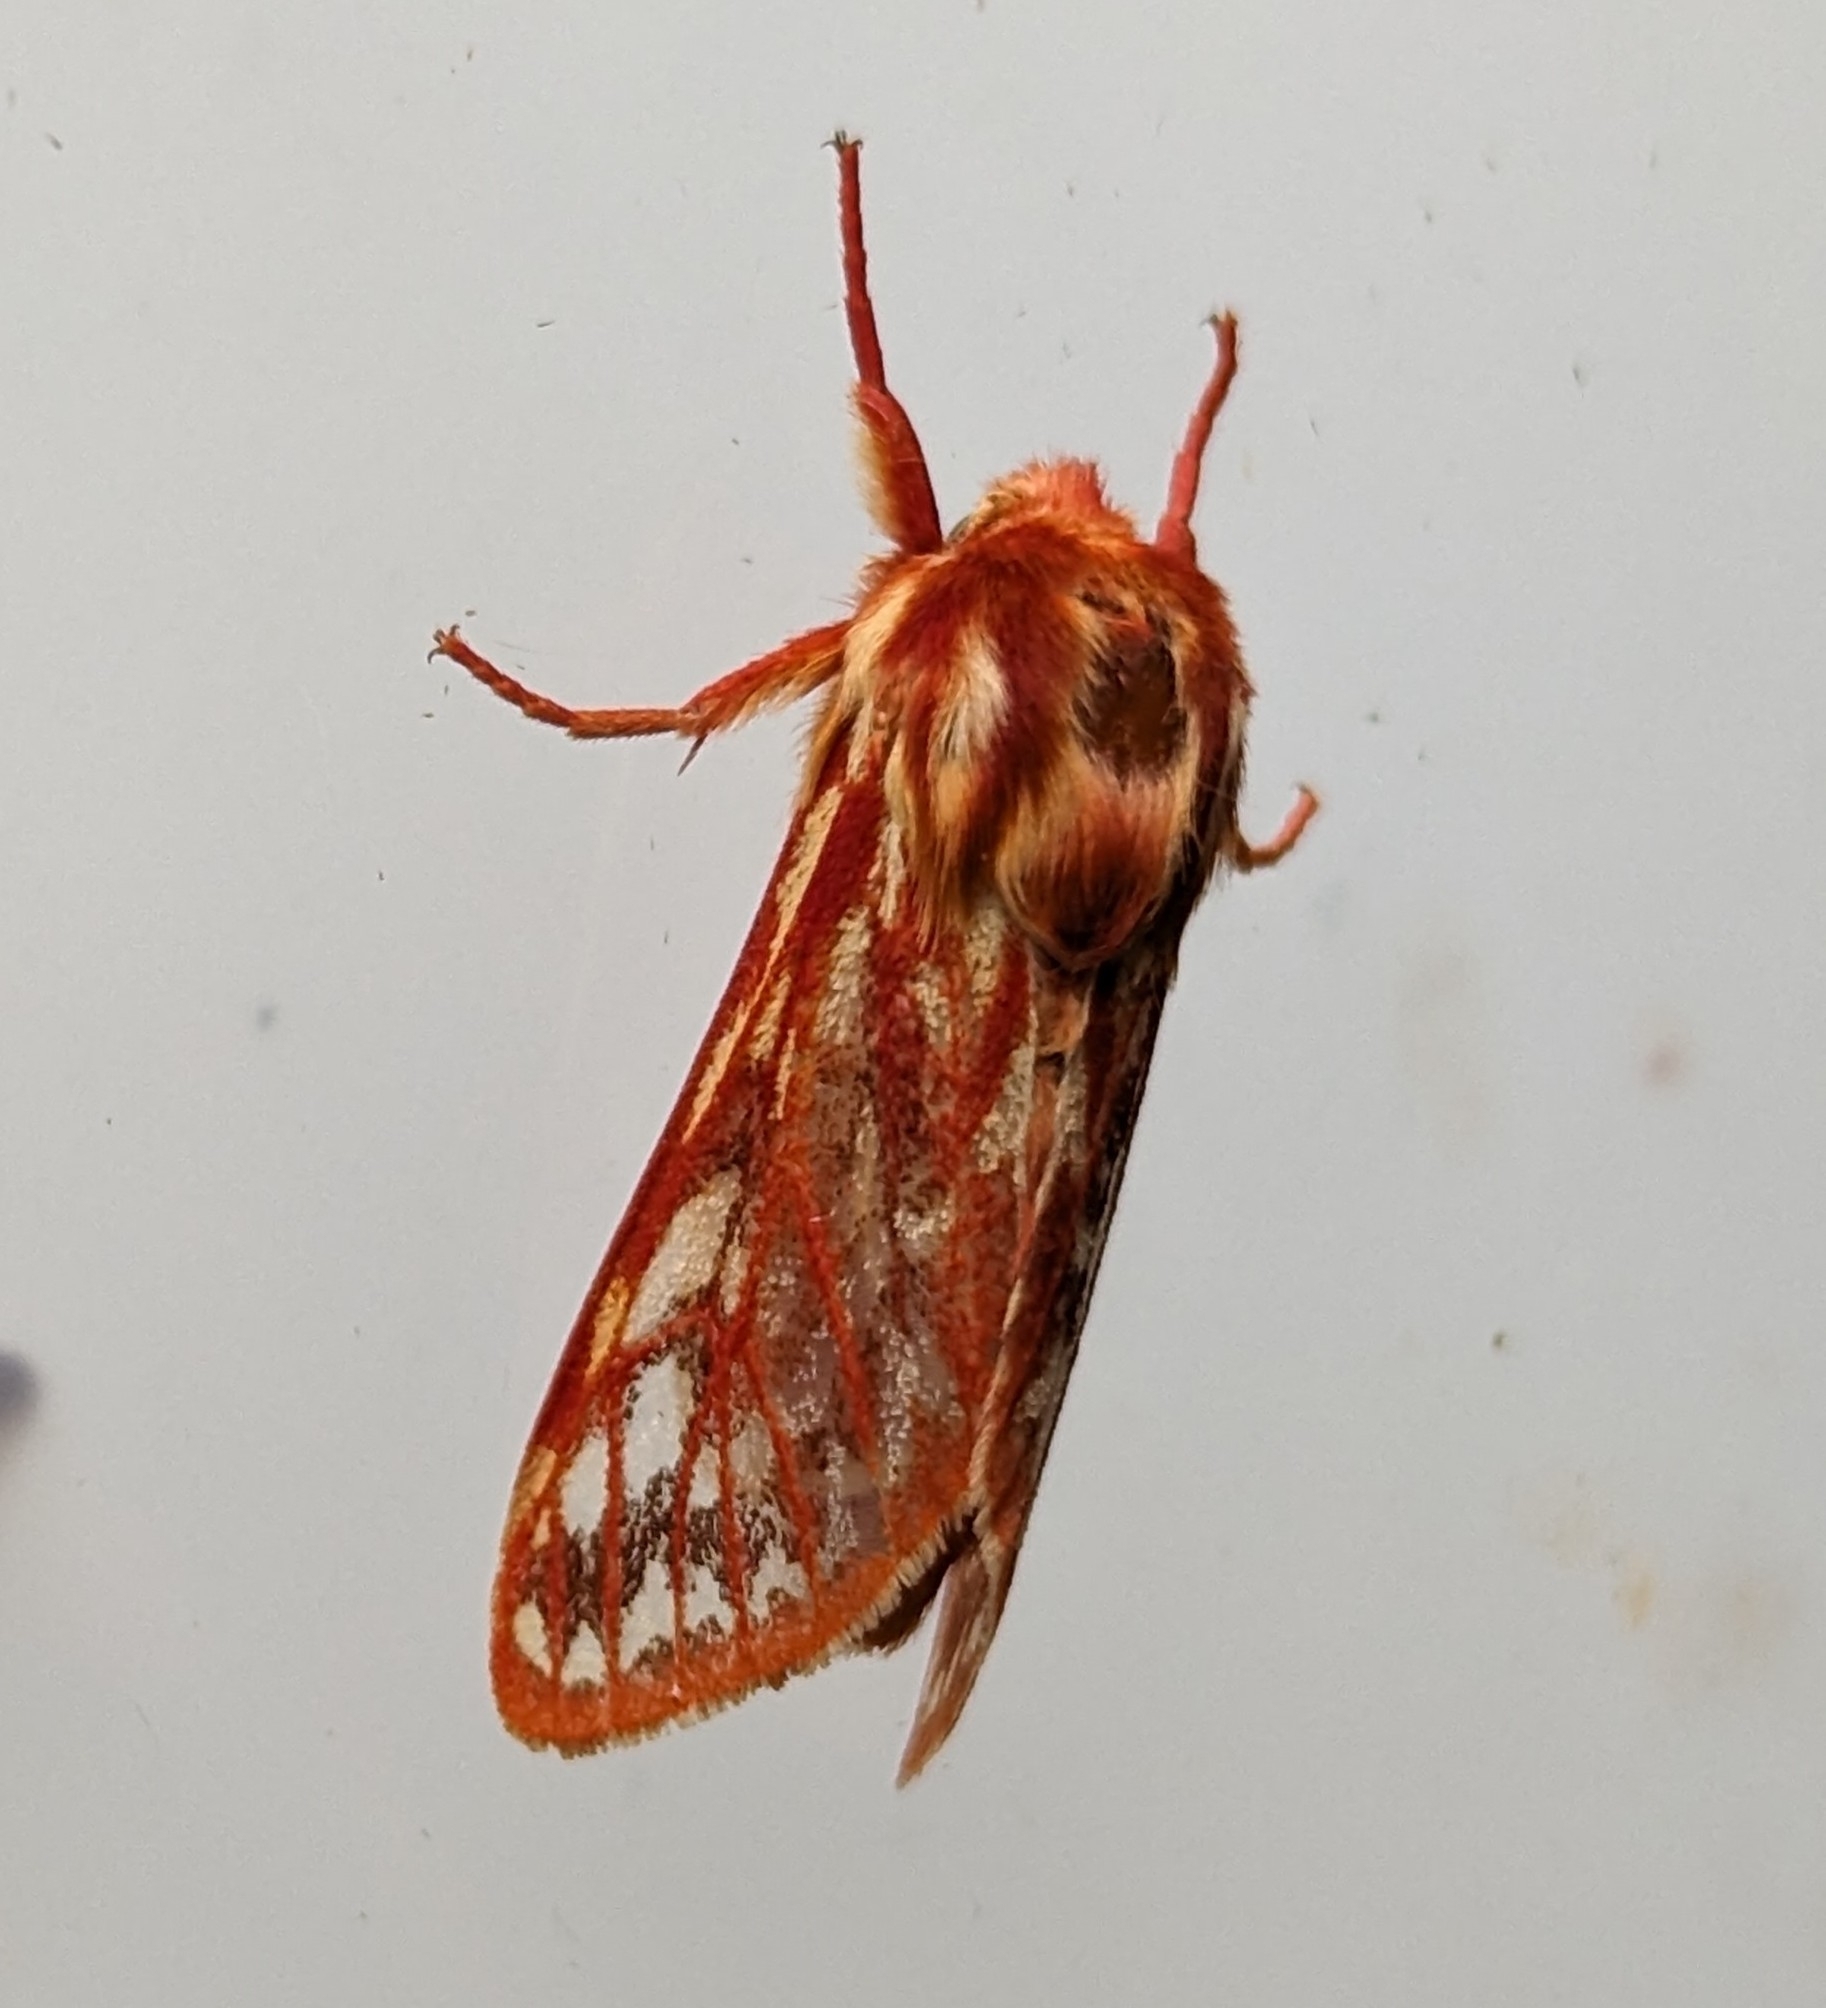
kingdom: Animalia
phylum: Arthropoda
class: Insecta
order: Lepidoptera
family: Erebidae
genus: Lophocampa
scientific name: Lophocampa roseata
